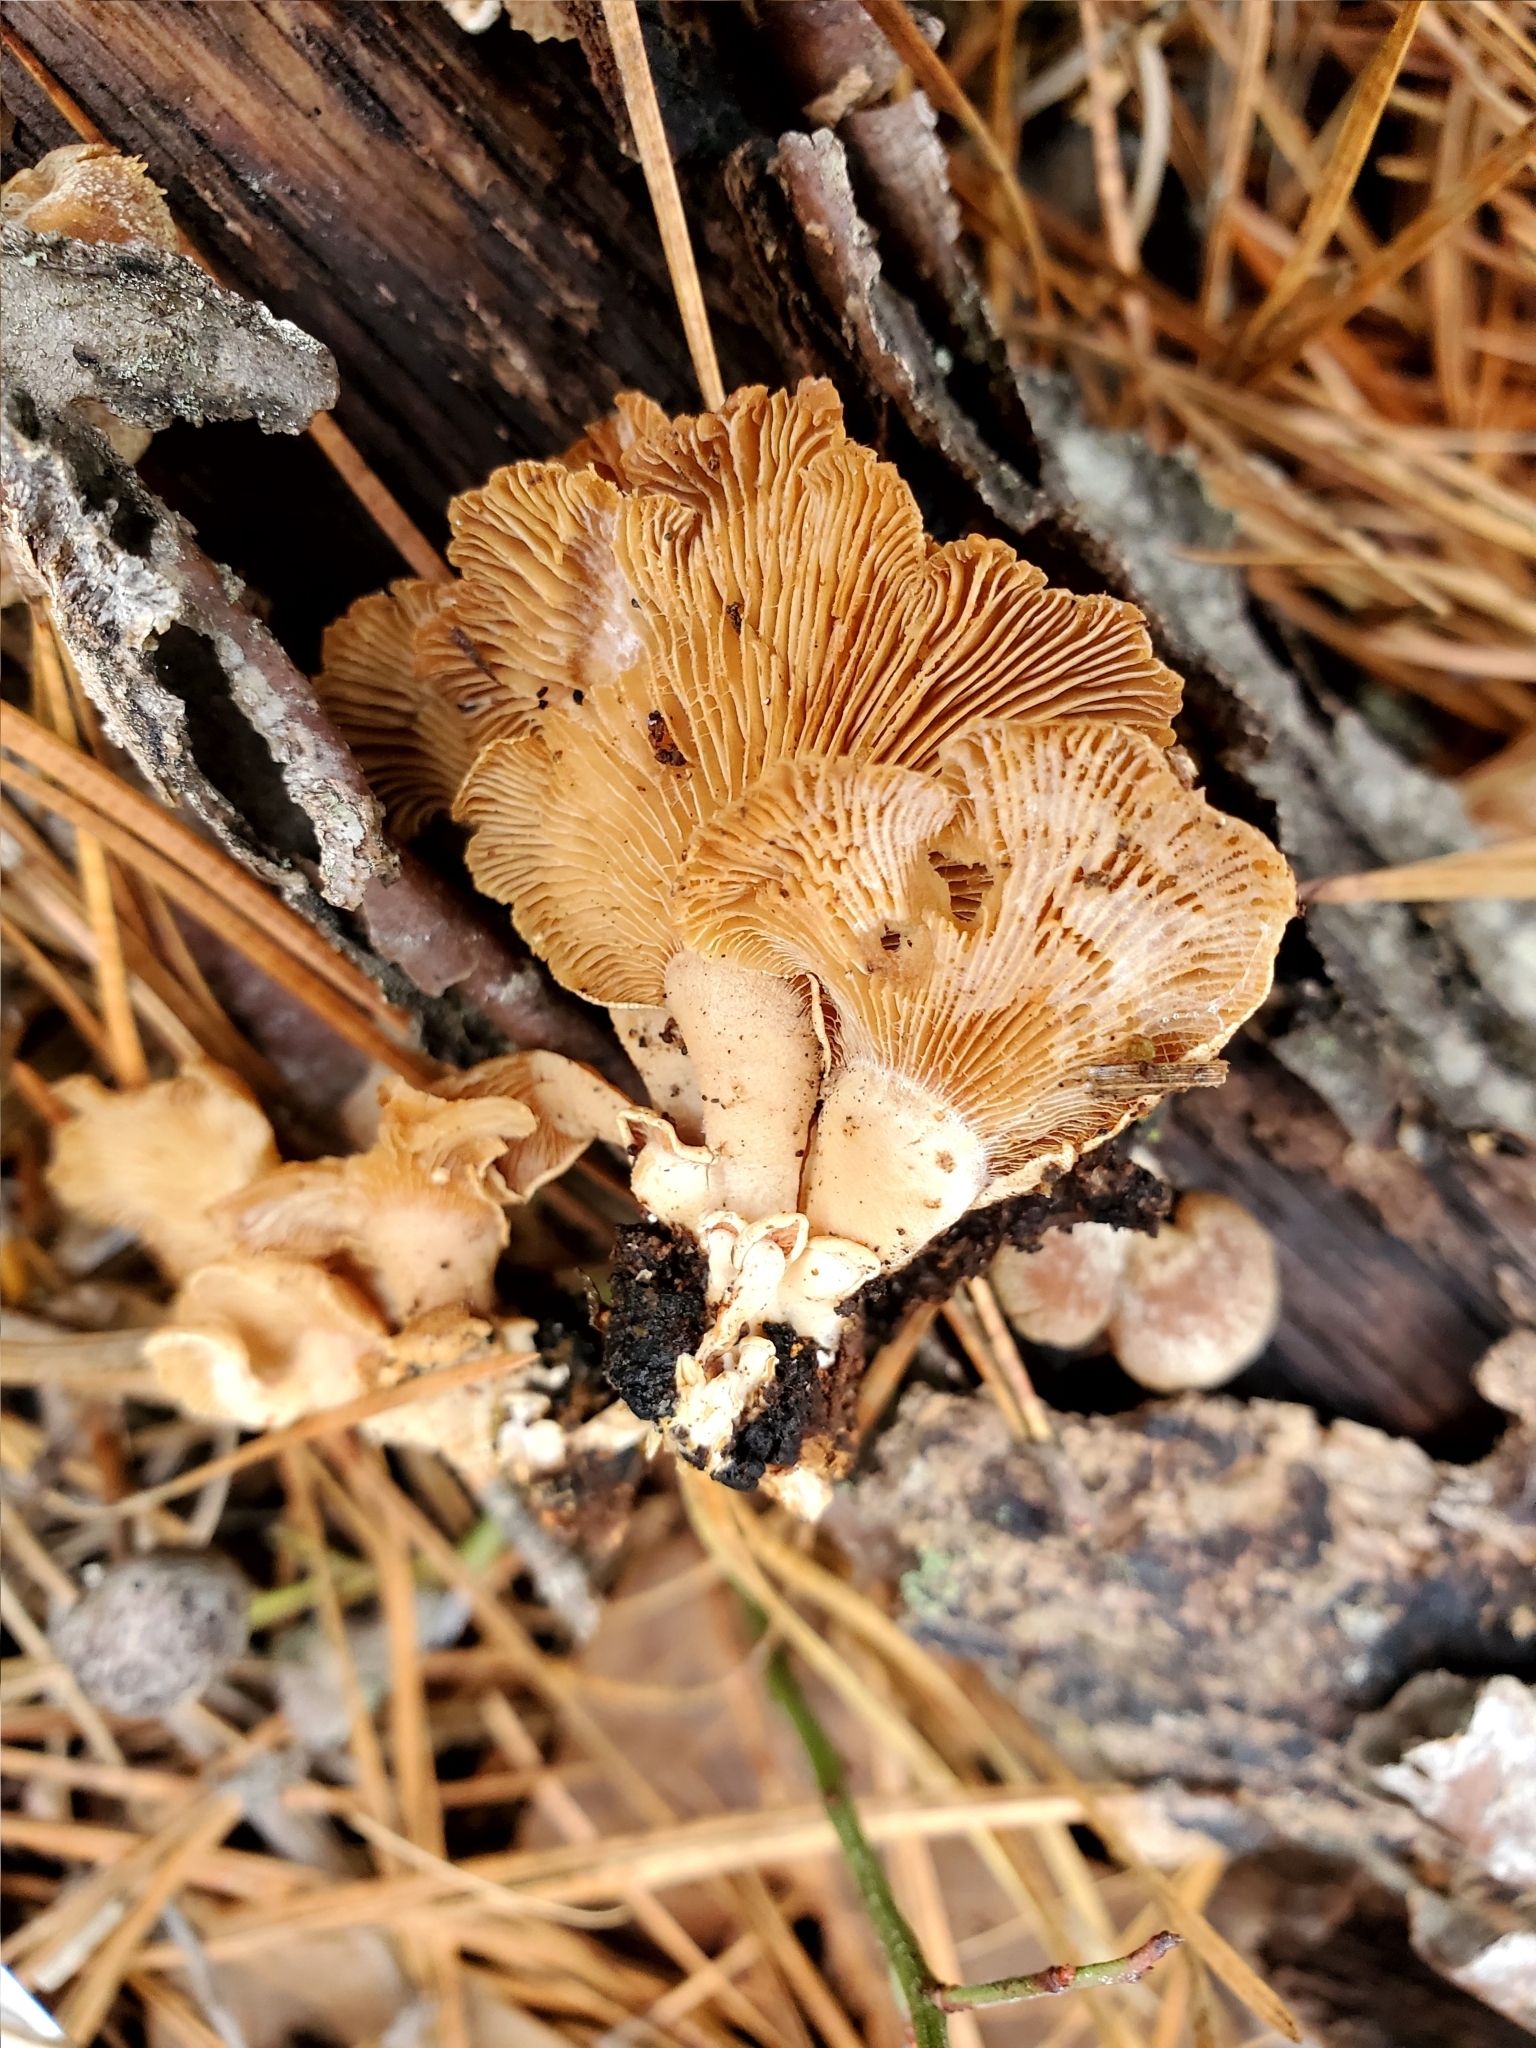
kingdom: Fungi
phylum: Basidiomycota
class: Agaricomycetes
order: Agaricales
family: Mycenaceae
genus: Panellus
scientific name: Panellus stipticus
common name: Bitter oysterling
